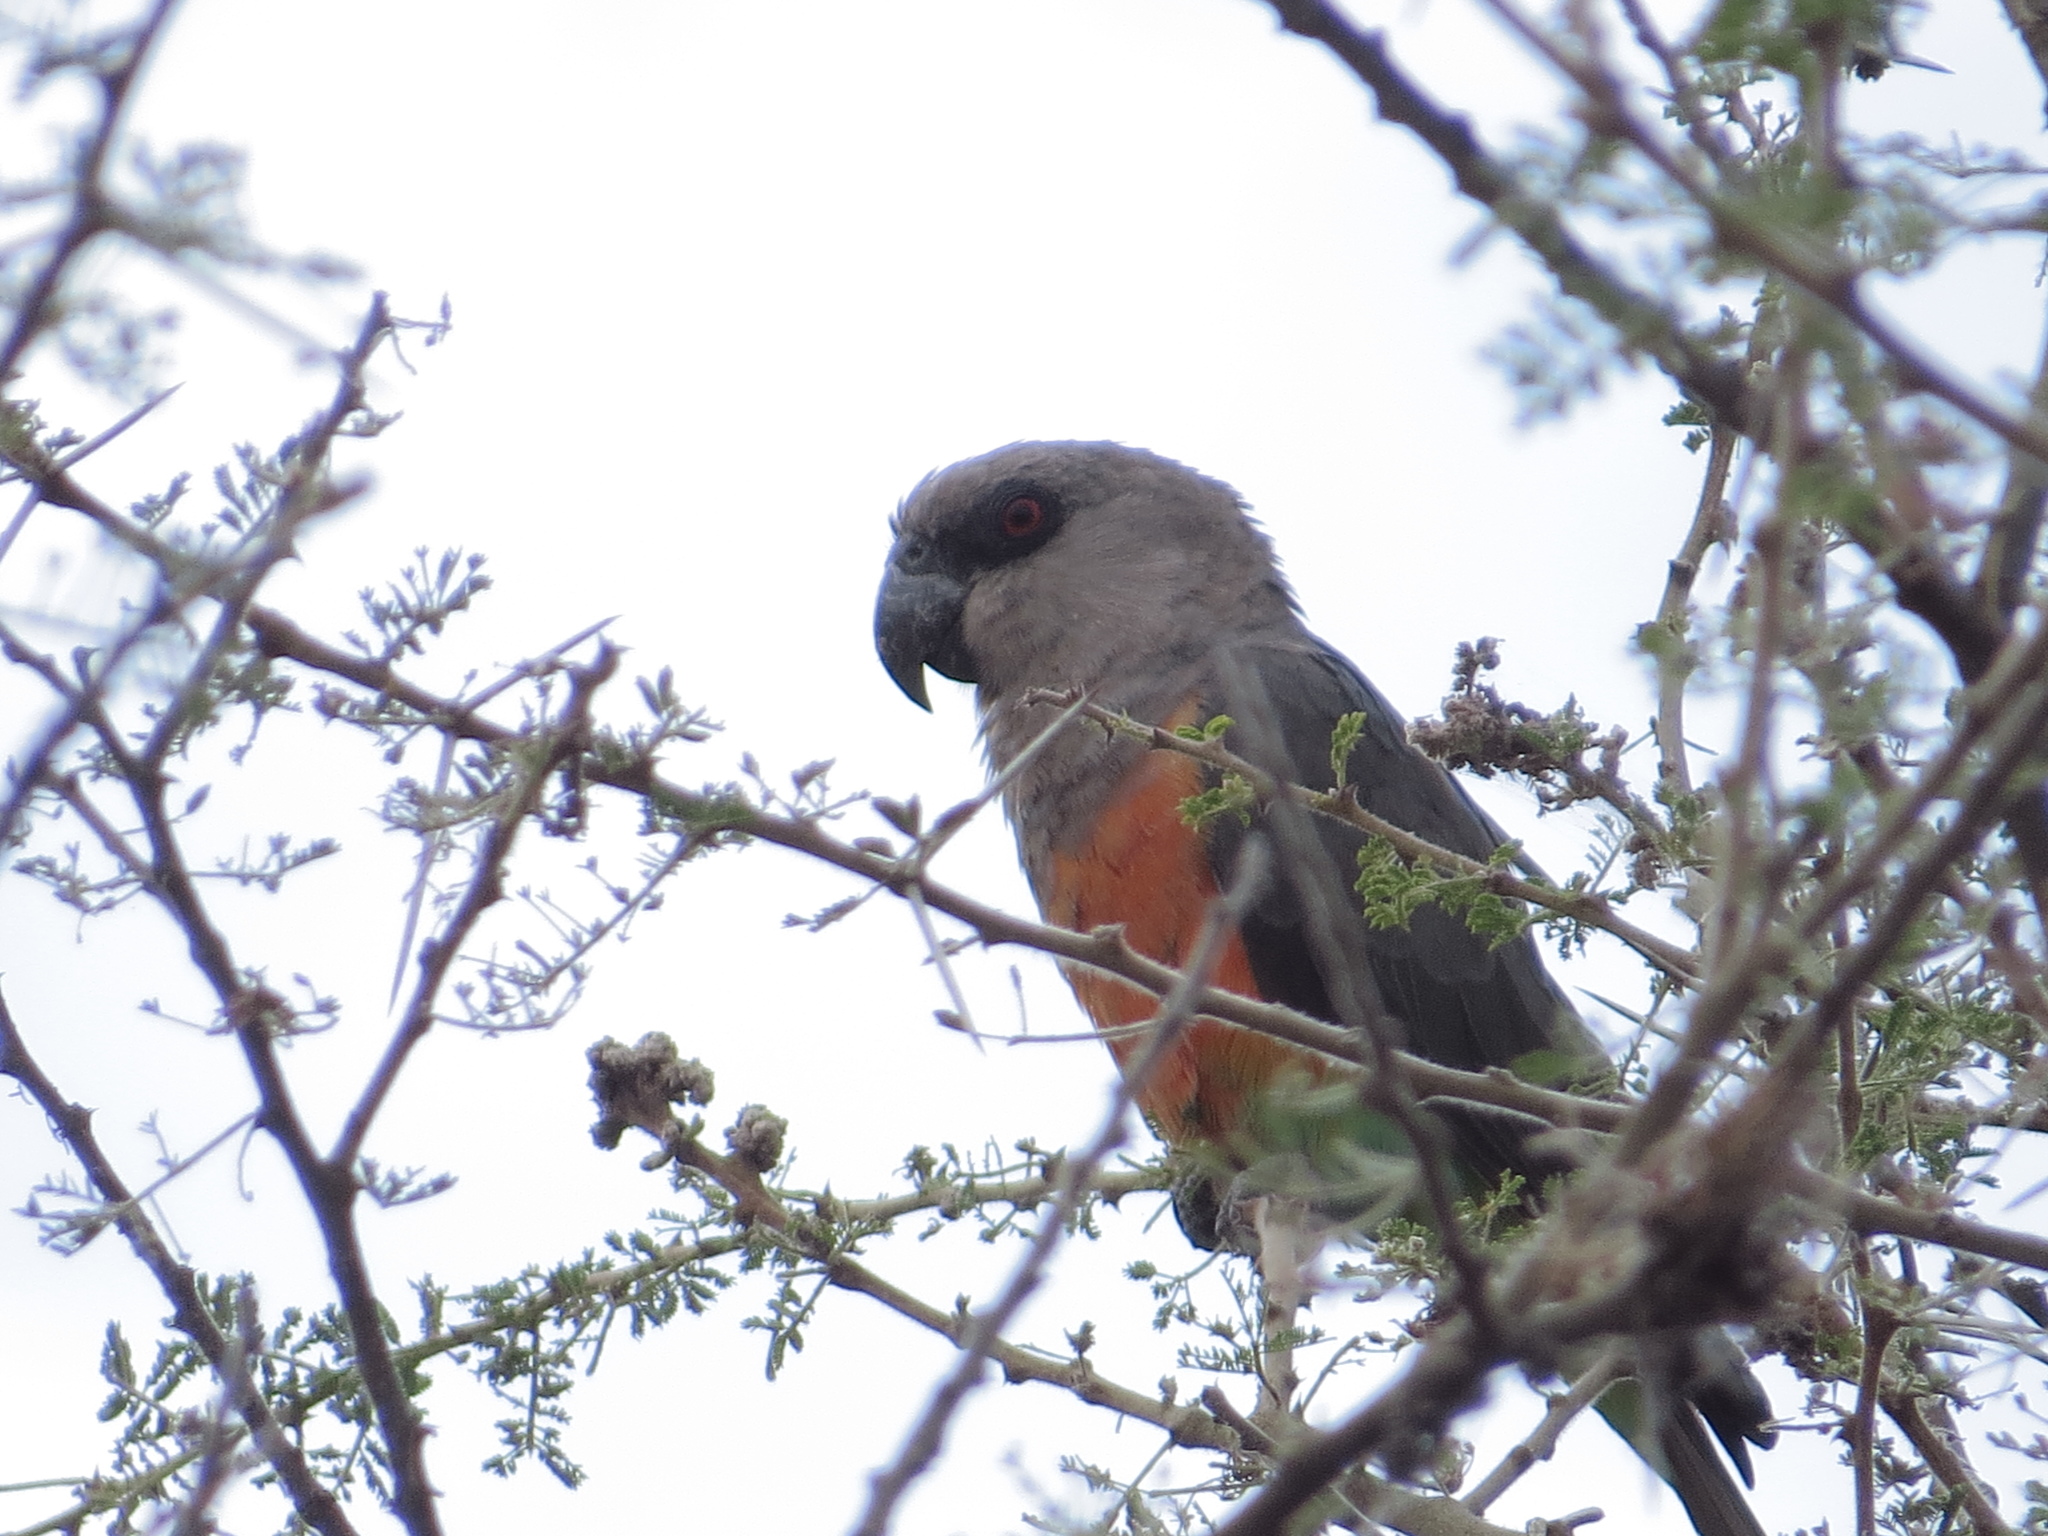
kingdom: Animalia
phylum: Chordata
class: Aves
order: Psittaciformes
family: Psittacidae
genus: Poicephalus
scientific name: Poicephalus rufiventris
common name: Red-bellied parrot
